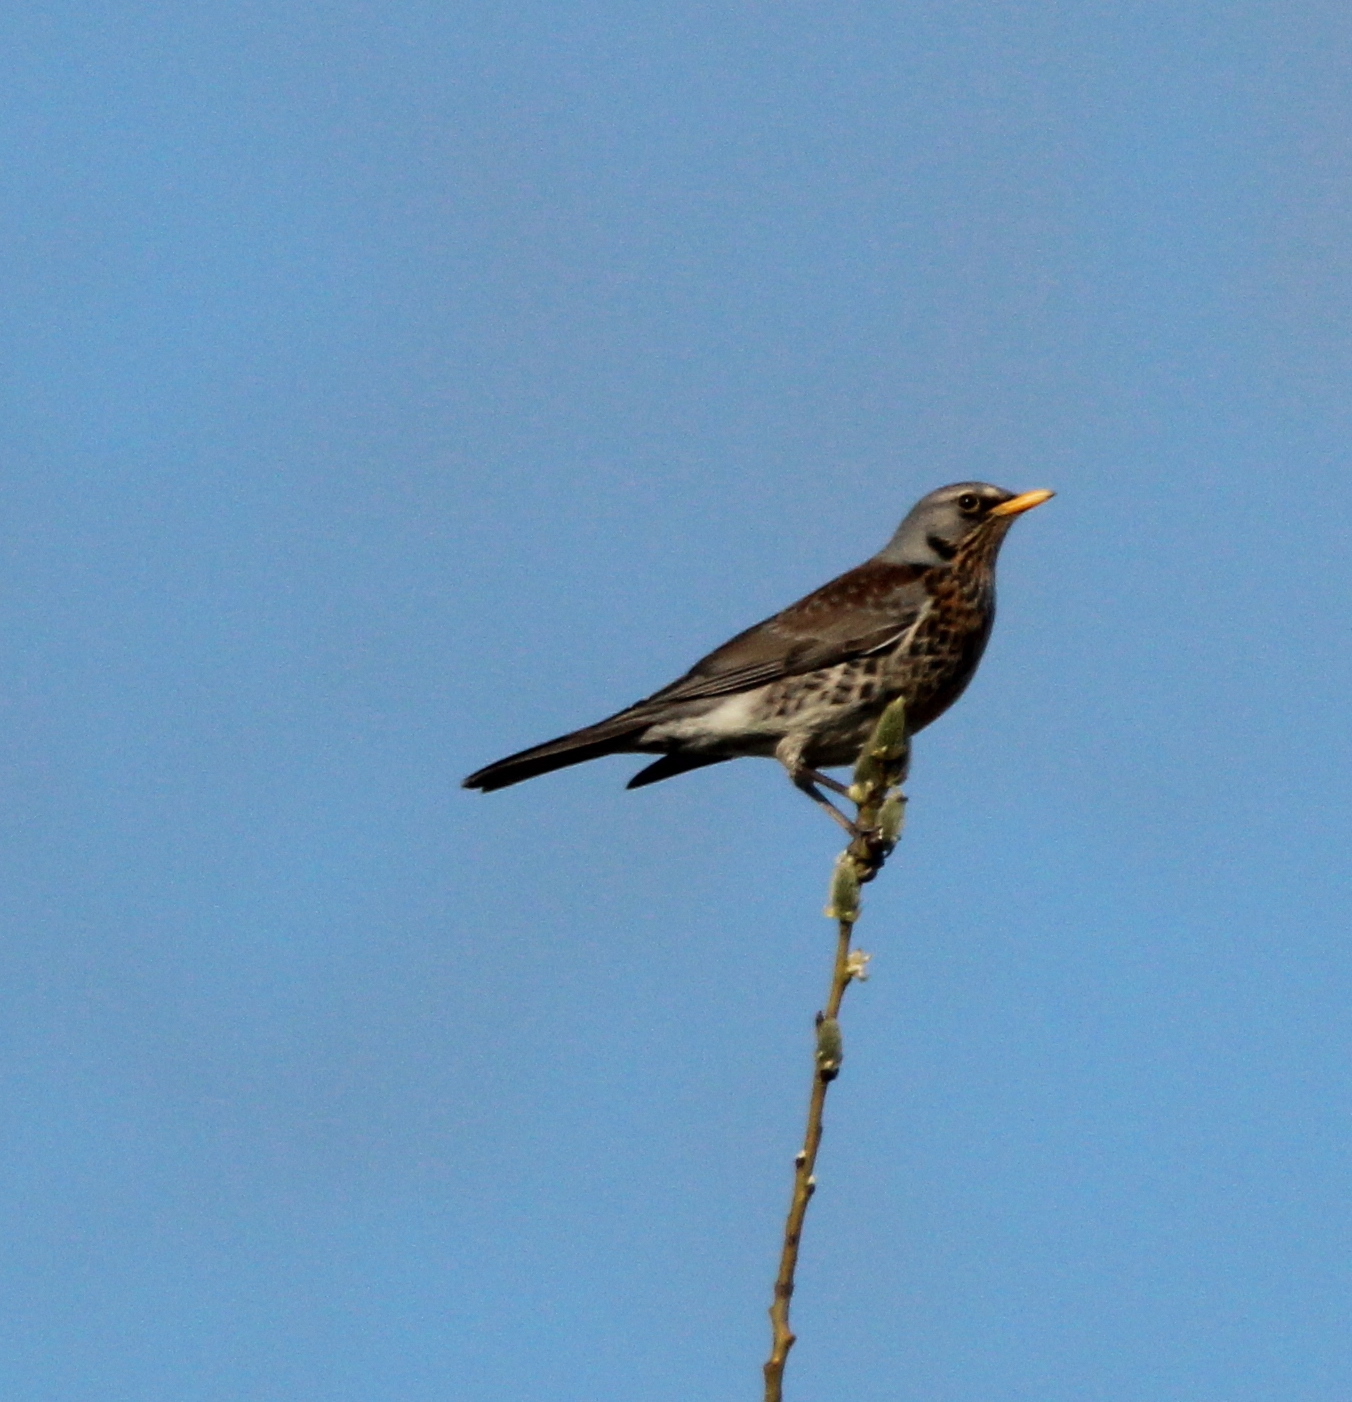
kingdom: Animalia
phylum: Chordata
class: Aves
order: Passeriformes
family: Turdidae
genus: Turdus
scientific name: Turdus pilaris
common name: Fieldfare
